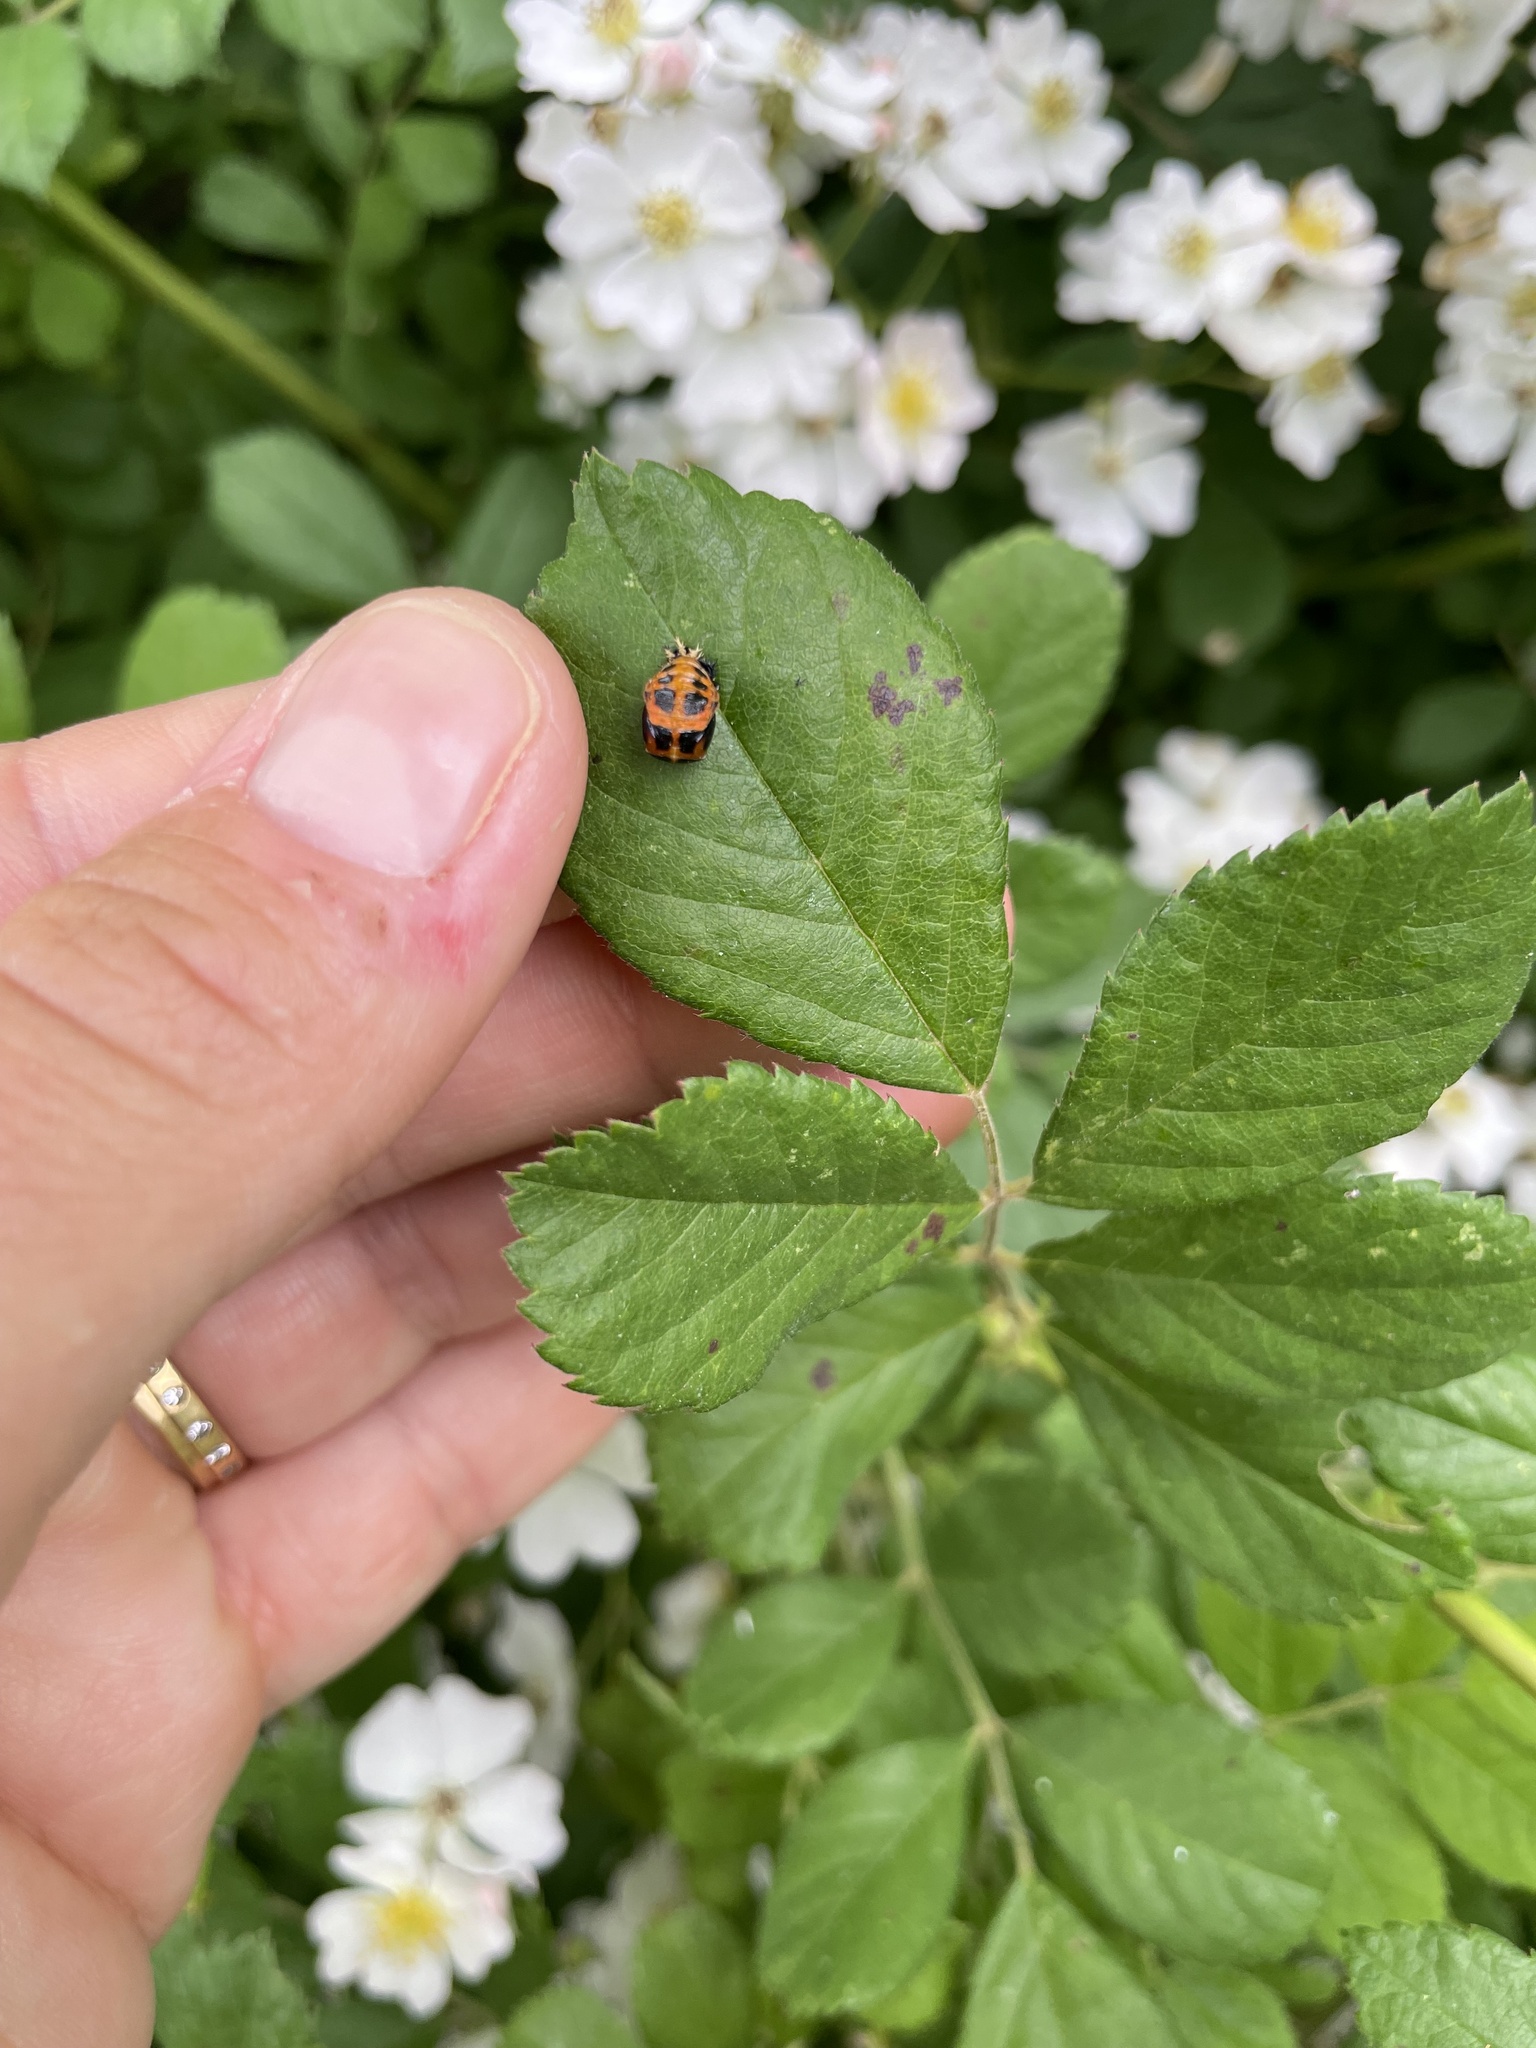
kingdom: Animalia
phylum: Arthropoda
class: Insecta
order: Coleoptera
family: Coccinellidae
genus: Harmonia
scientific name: Harmonia axyridis
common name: Harlequin ladybird
